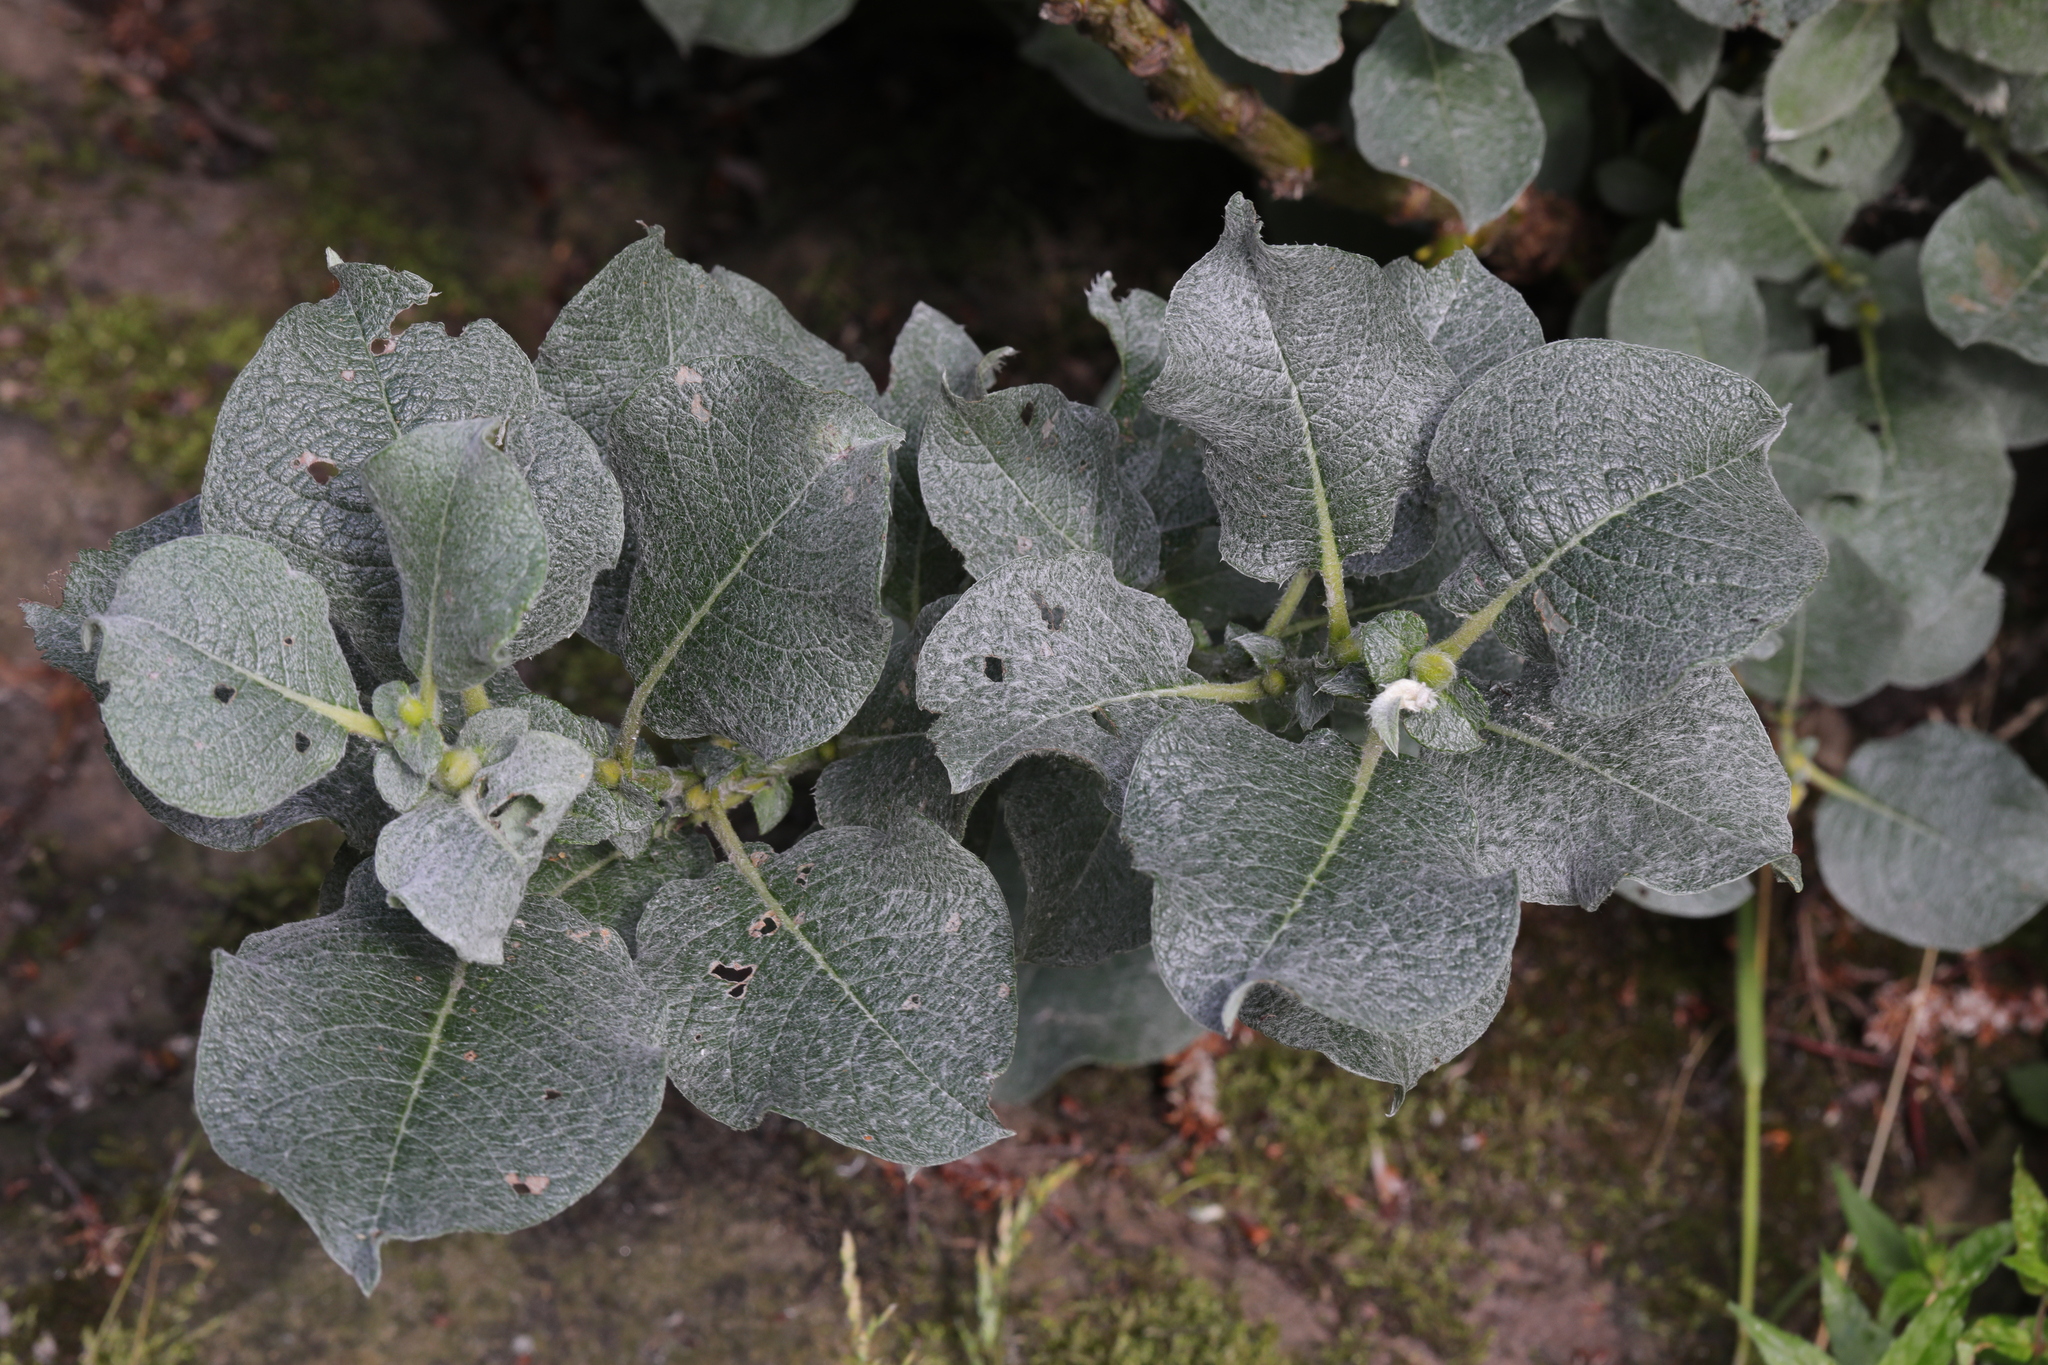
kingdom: Plantae
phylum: Tracheophyta
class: Magnoliopsida
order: Malpighiales
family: Salicaceae
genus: Salix
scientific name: Salix caprea
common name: Goat willow
